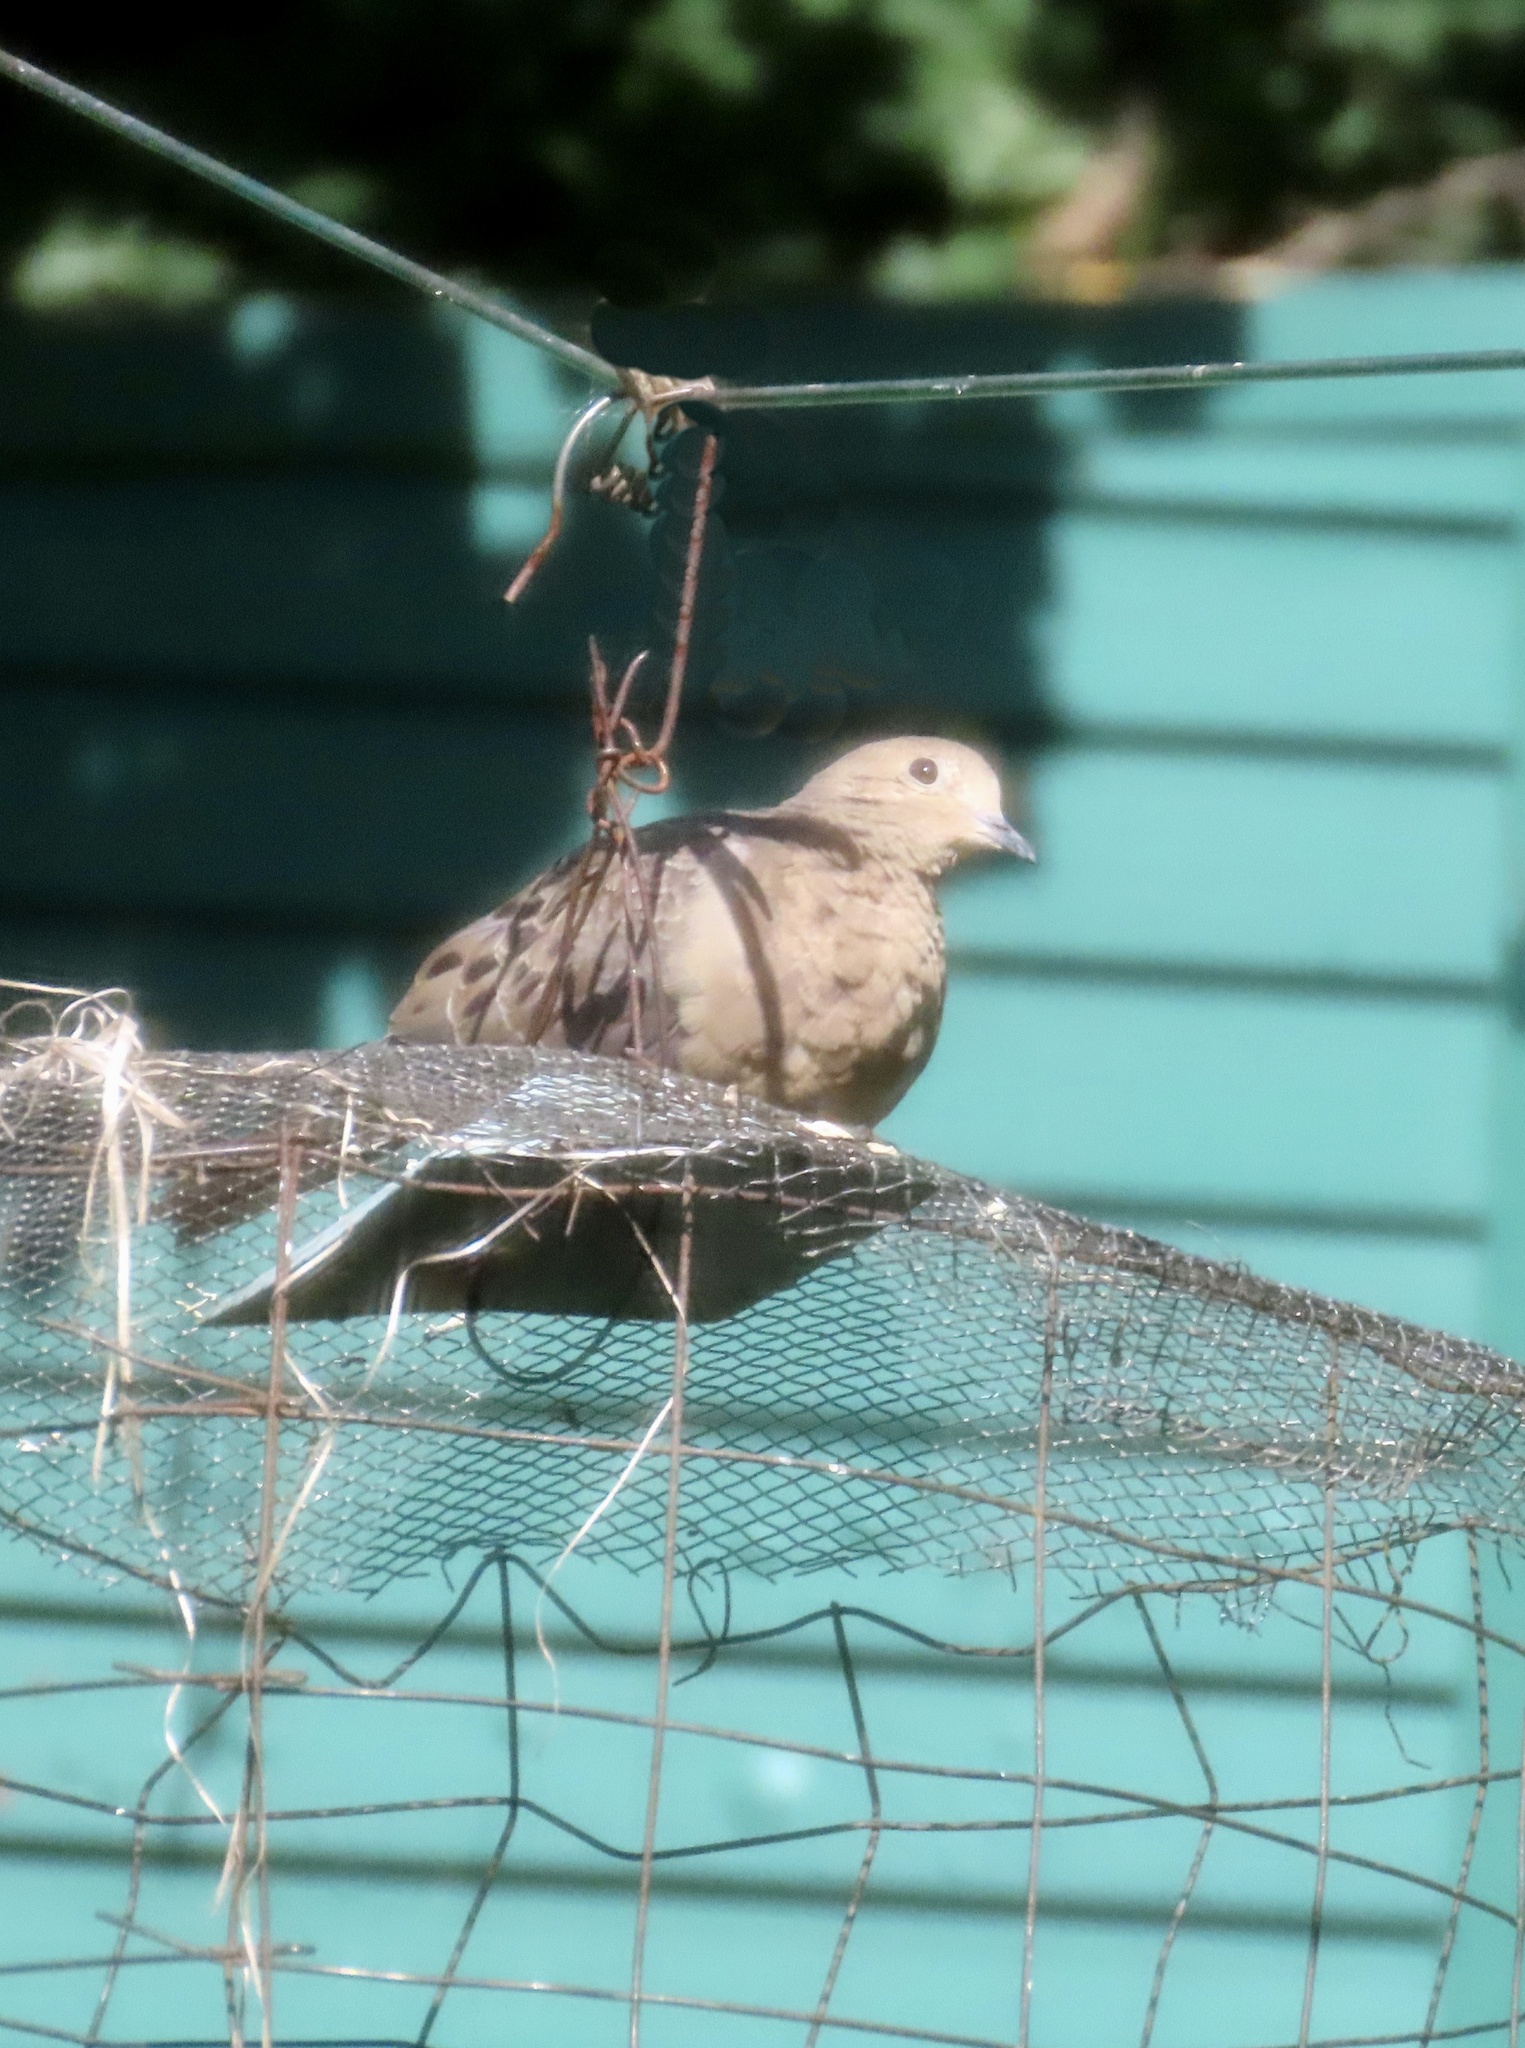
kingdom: Animalia
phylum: Chordata
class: Aves
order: Columbiformes
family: Columbidae
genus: Zenaida
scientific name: Zenaida macroura
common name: Mourning dove
